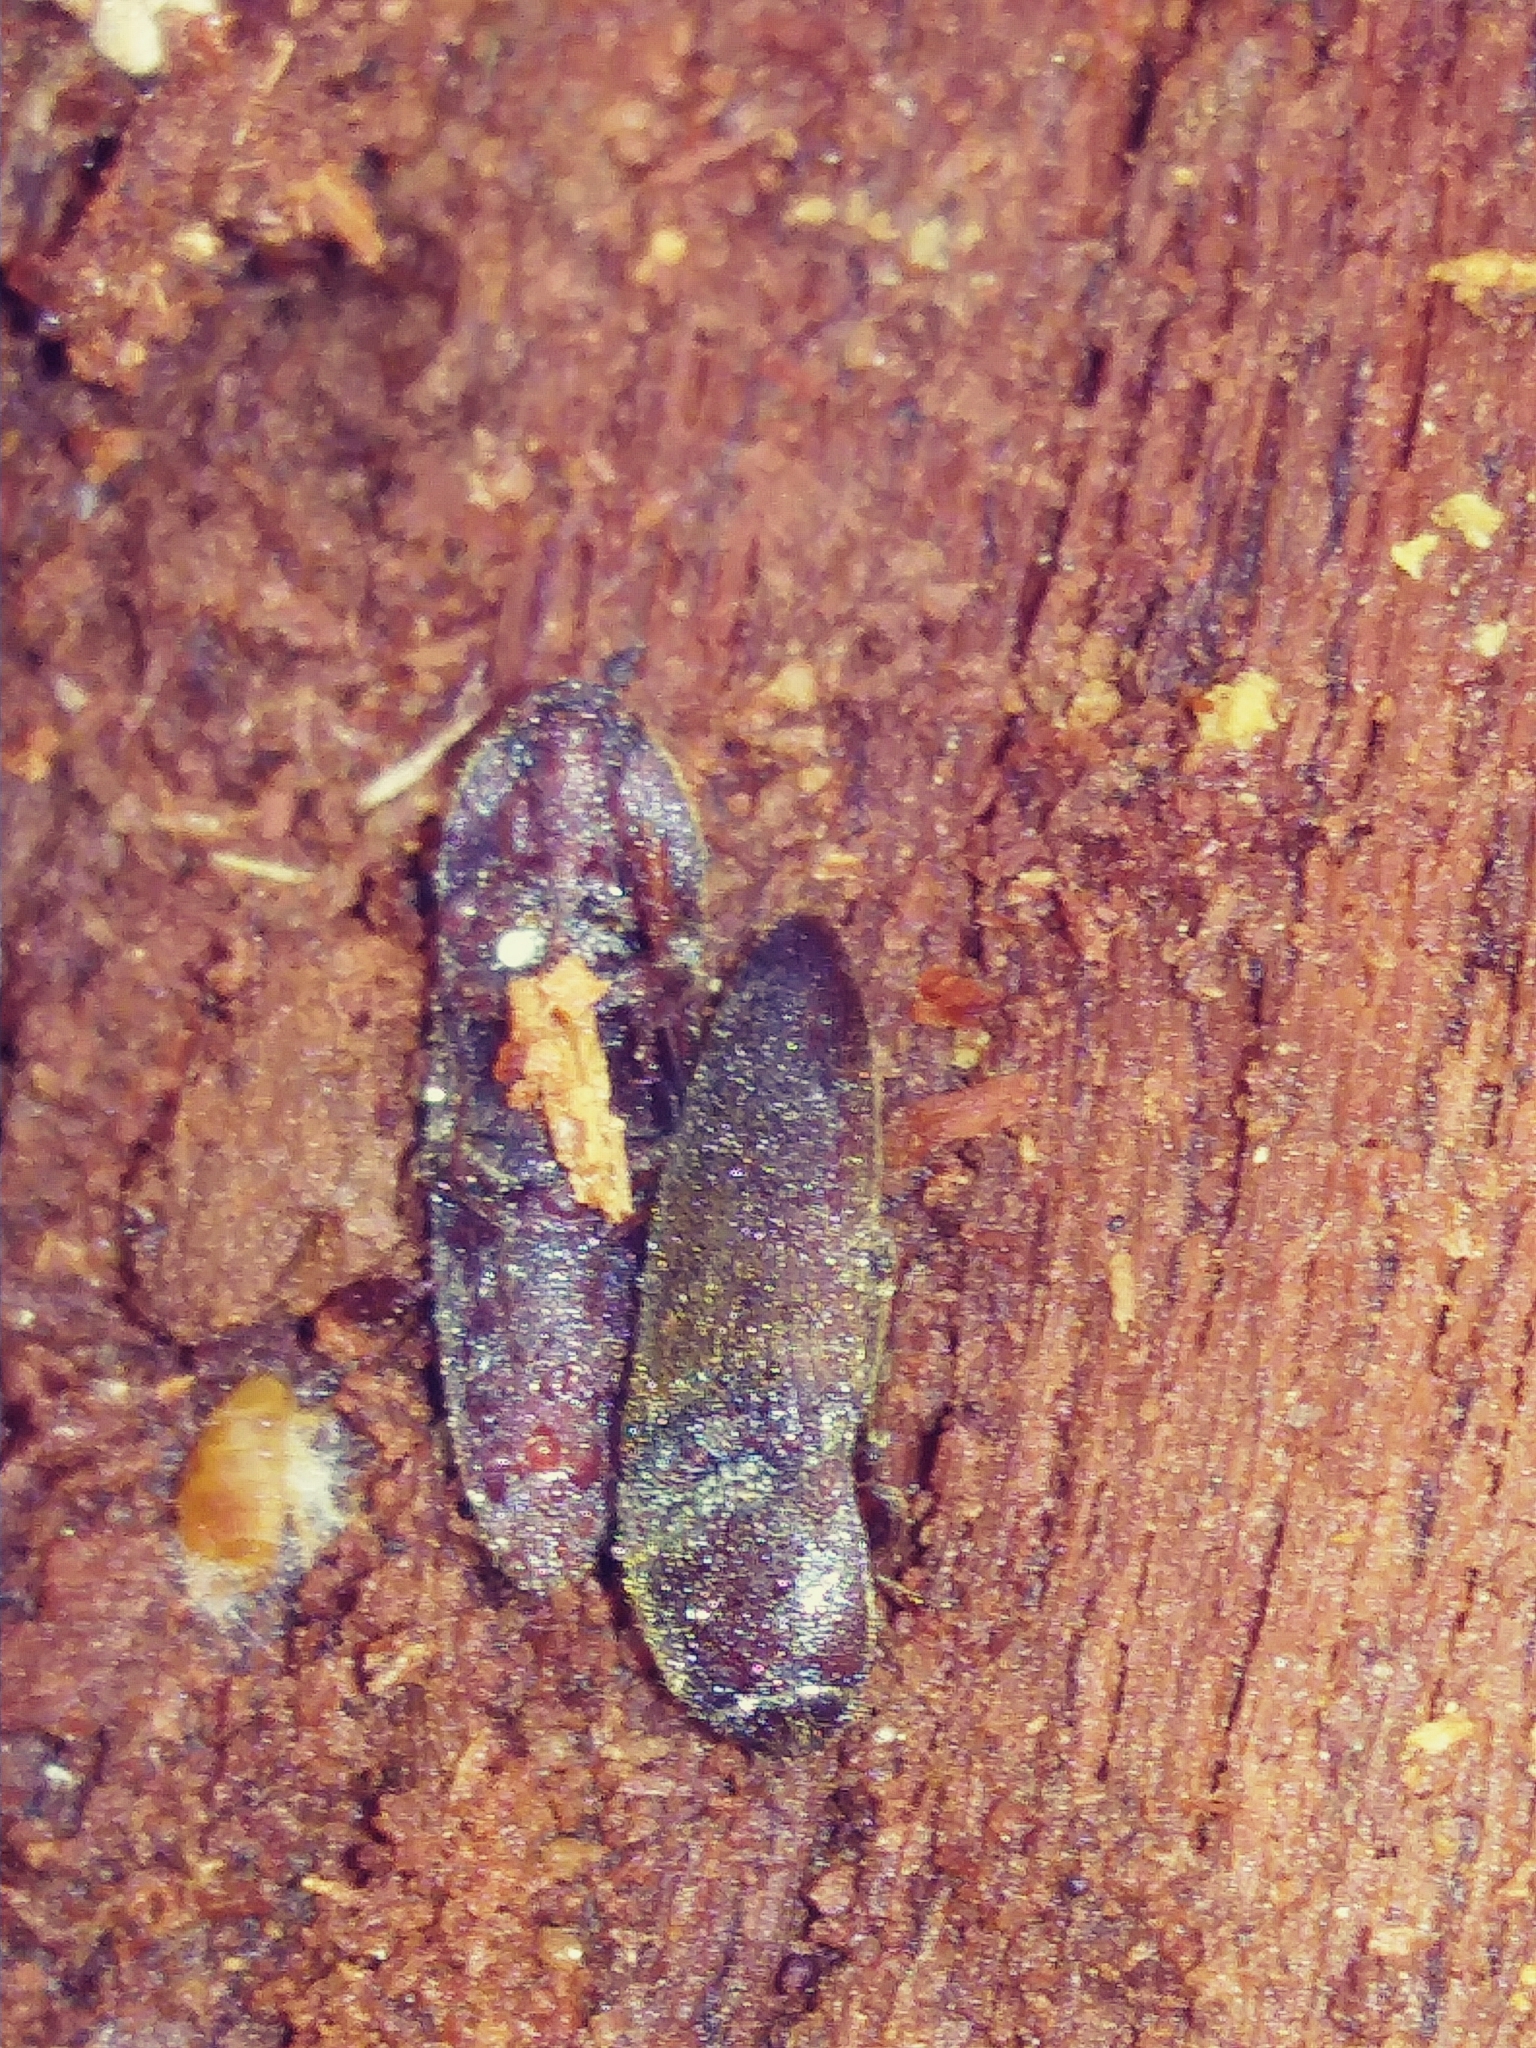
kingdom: Animalia
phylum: Arthropoda
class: Insecta
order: Coleoptera
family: Elateridae
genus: Melanotus
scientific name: Melanotus similis
